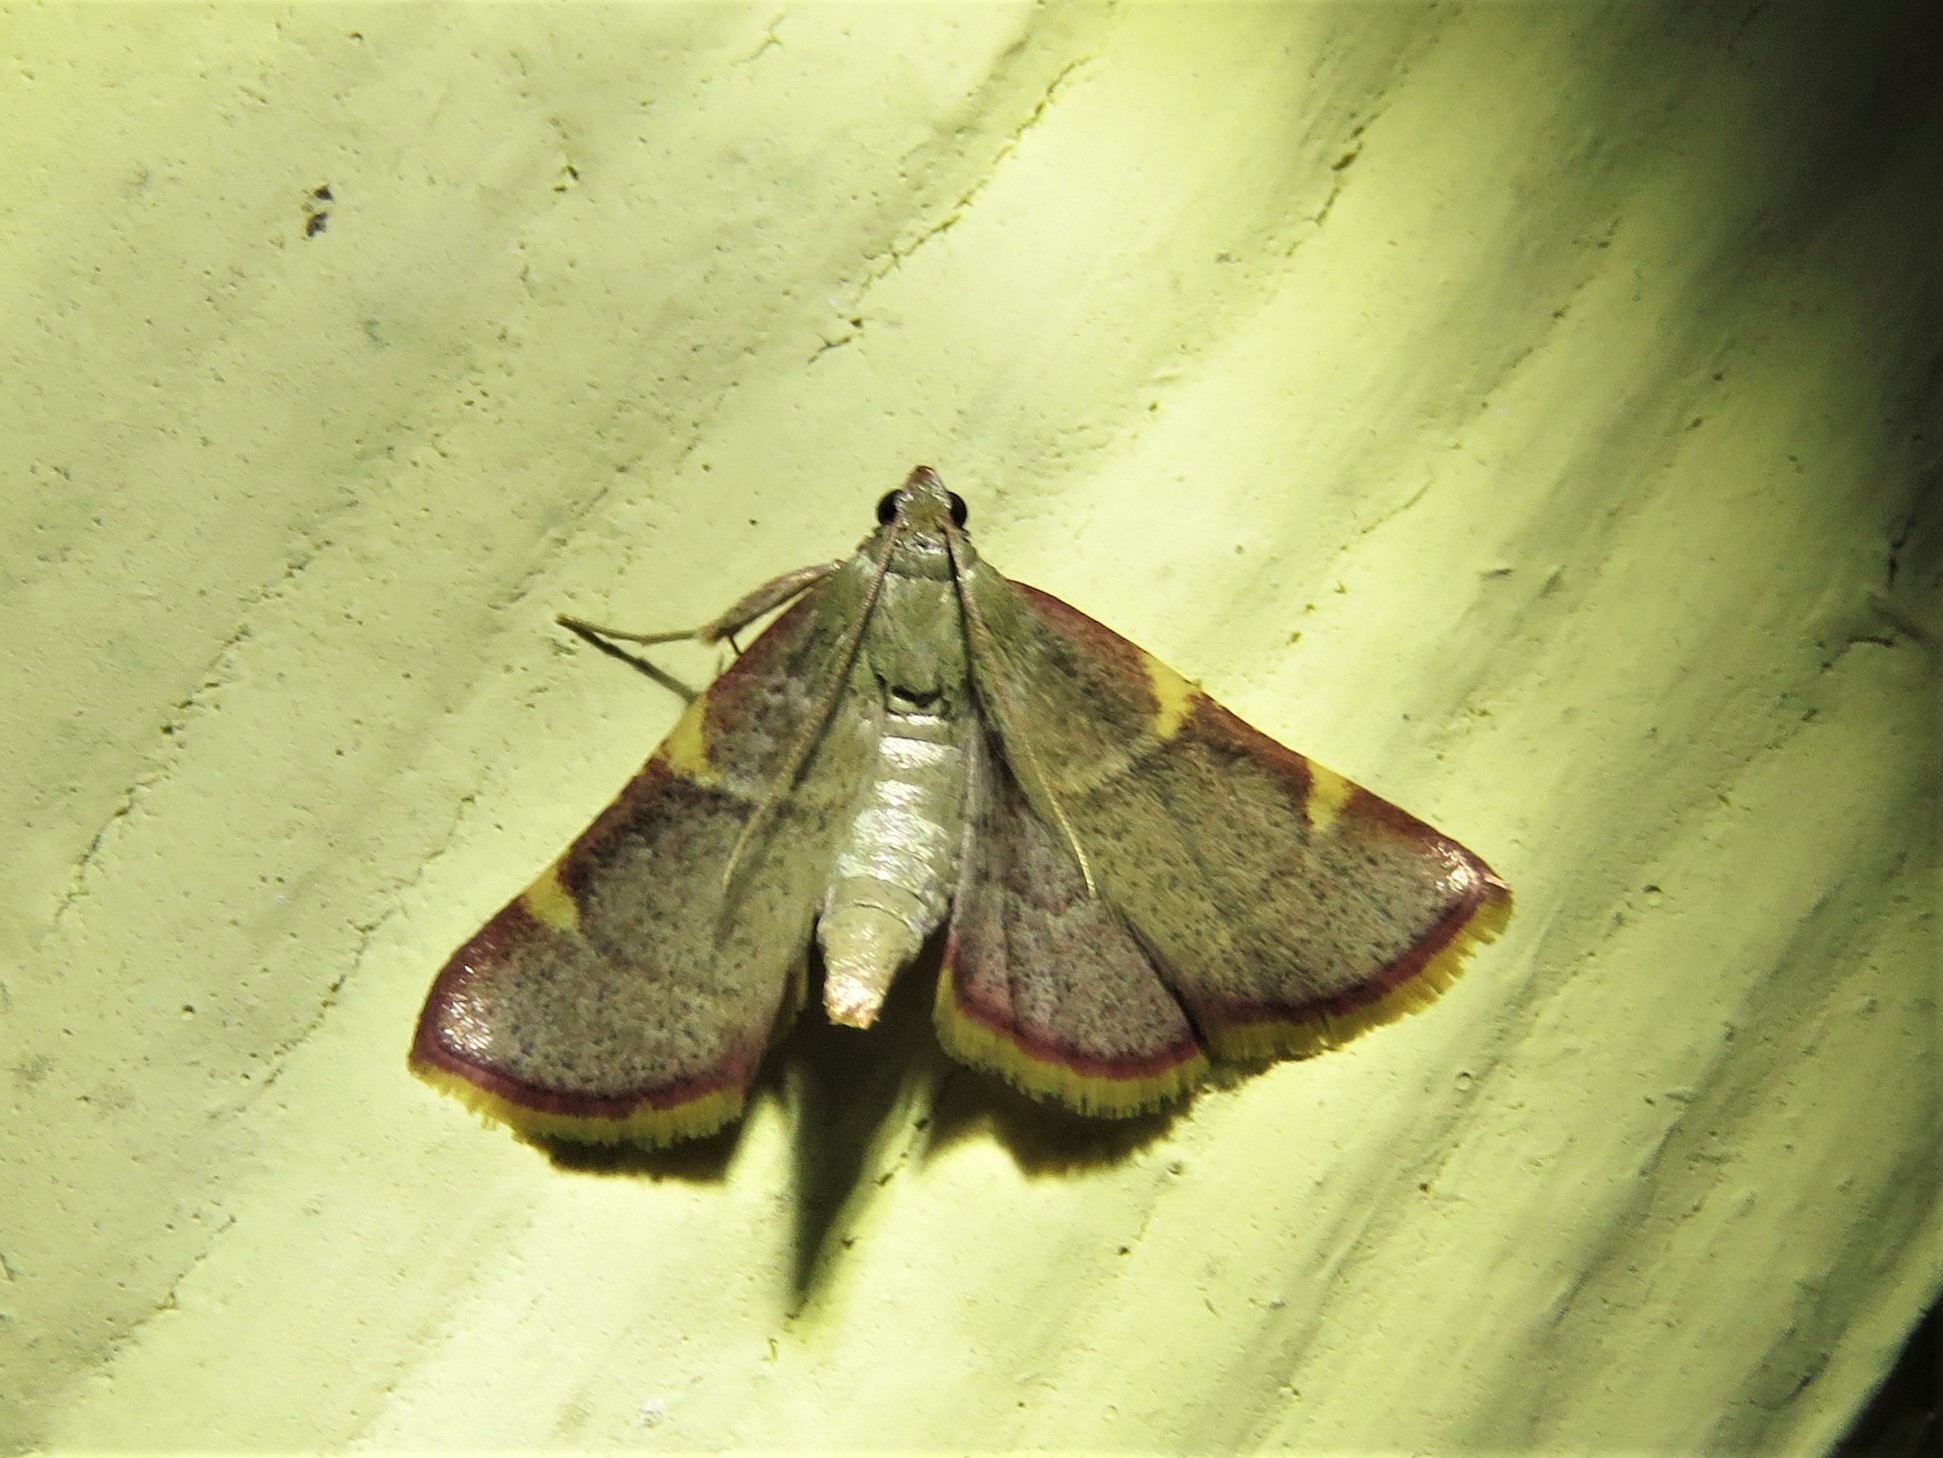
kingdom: Animalia
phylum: Arthropoda
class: Insecta
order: Lepidoptera
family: Pyralidae
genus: Hypsopygia
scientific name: Hypsopygia olinalis
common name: Yellow-fringed dolichomia moth
